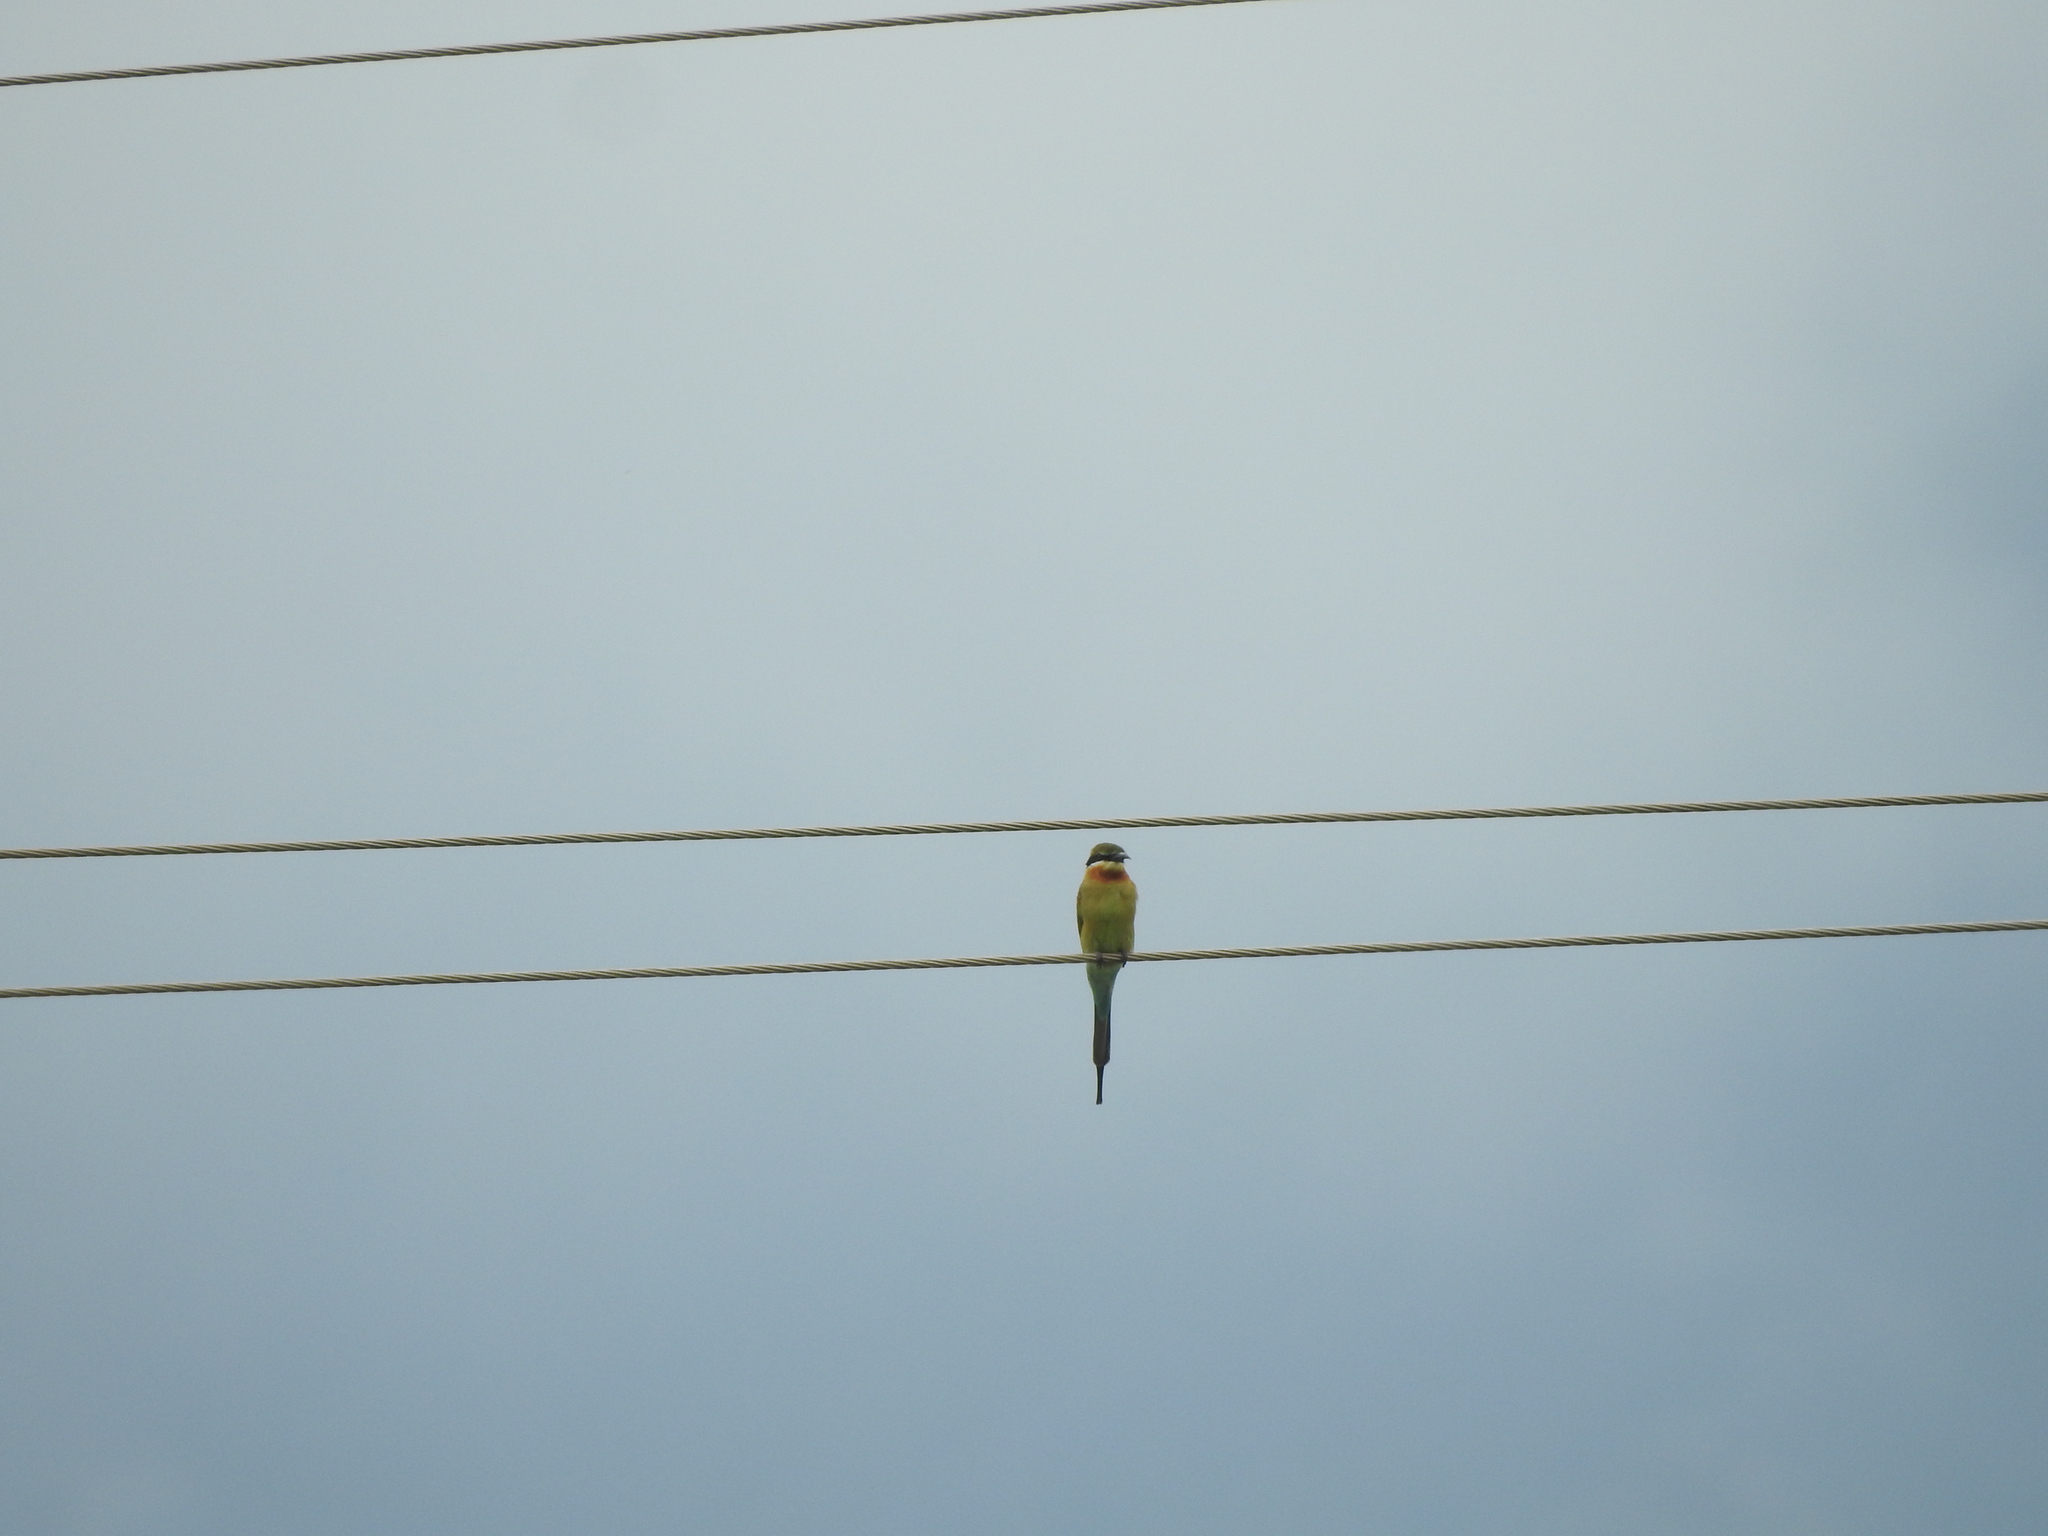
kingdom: Animalia
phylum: Chordata
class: Aves
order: Coraciiformes
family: Meropidae
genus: Merops
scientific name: Merops philippinus
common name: Blue-tailed bee-eater
